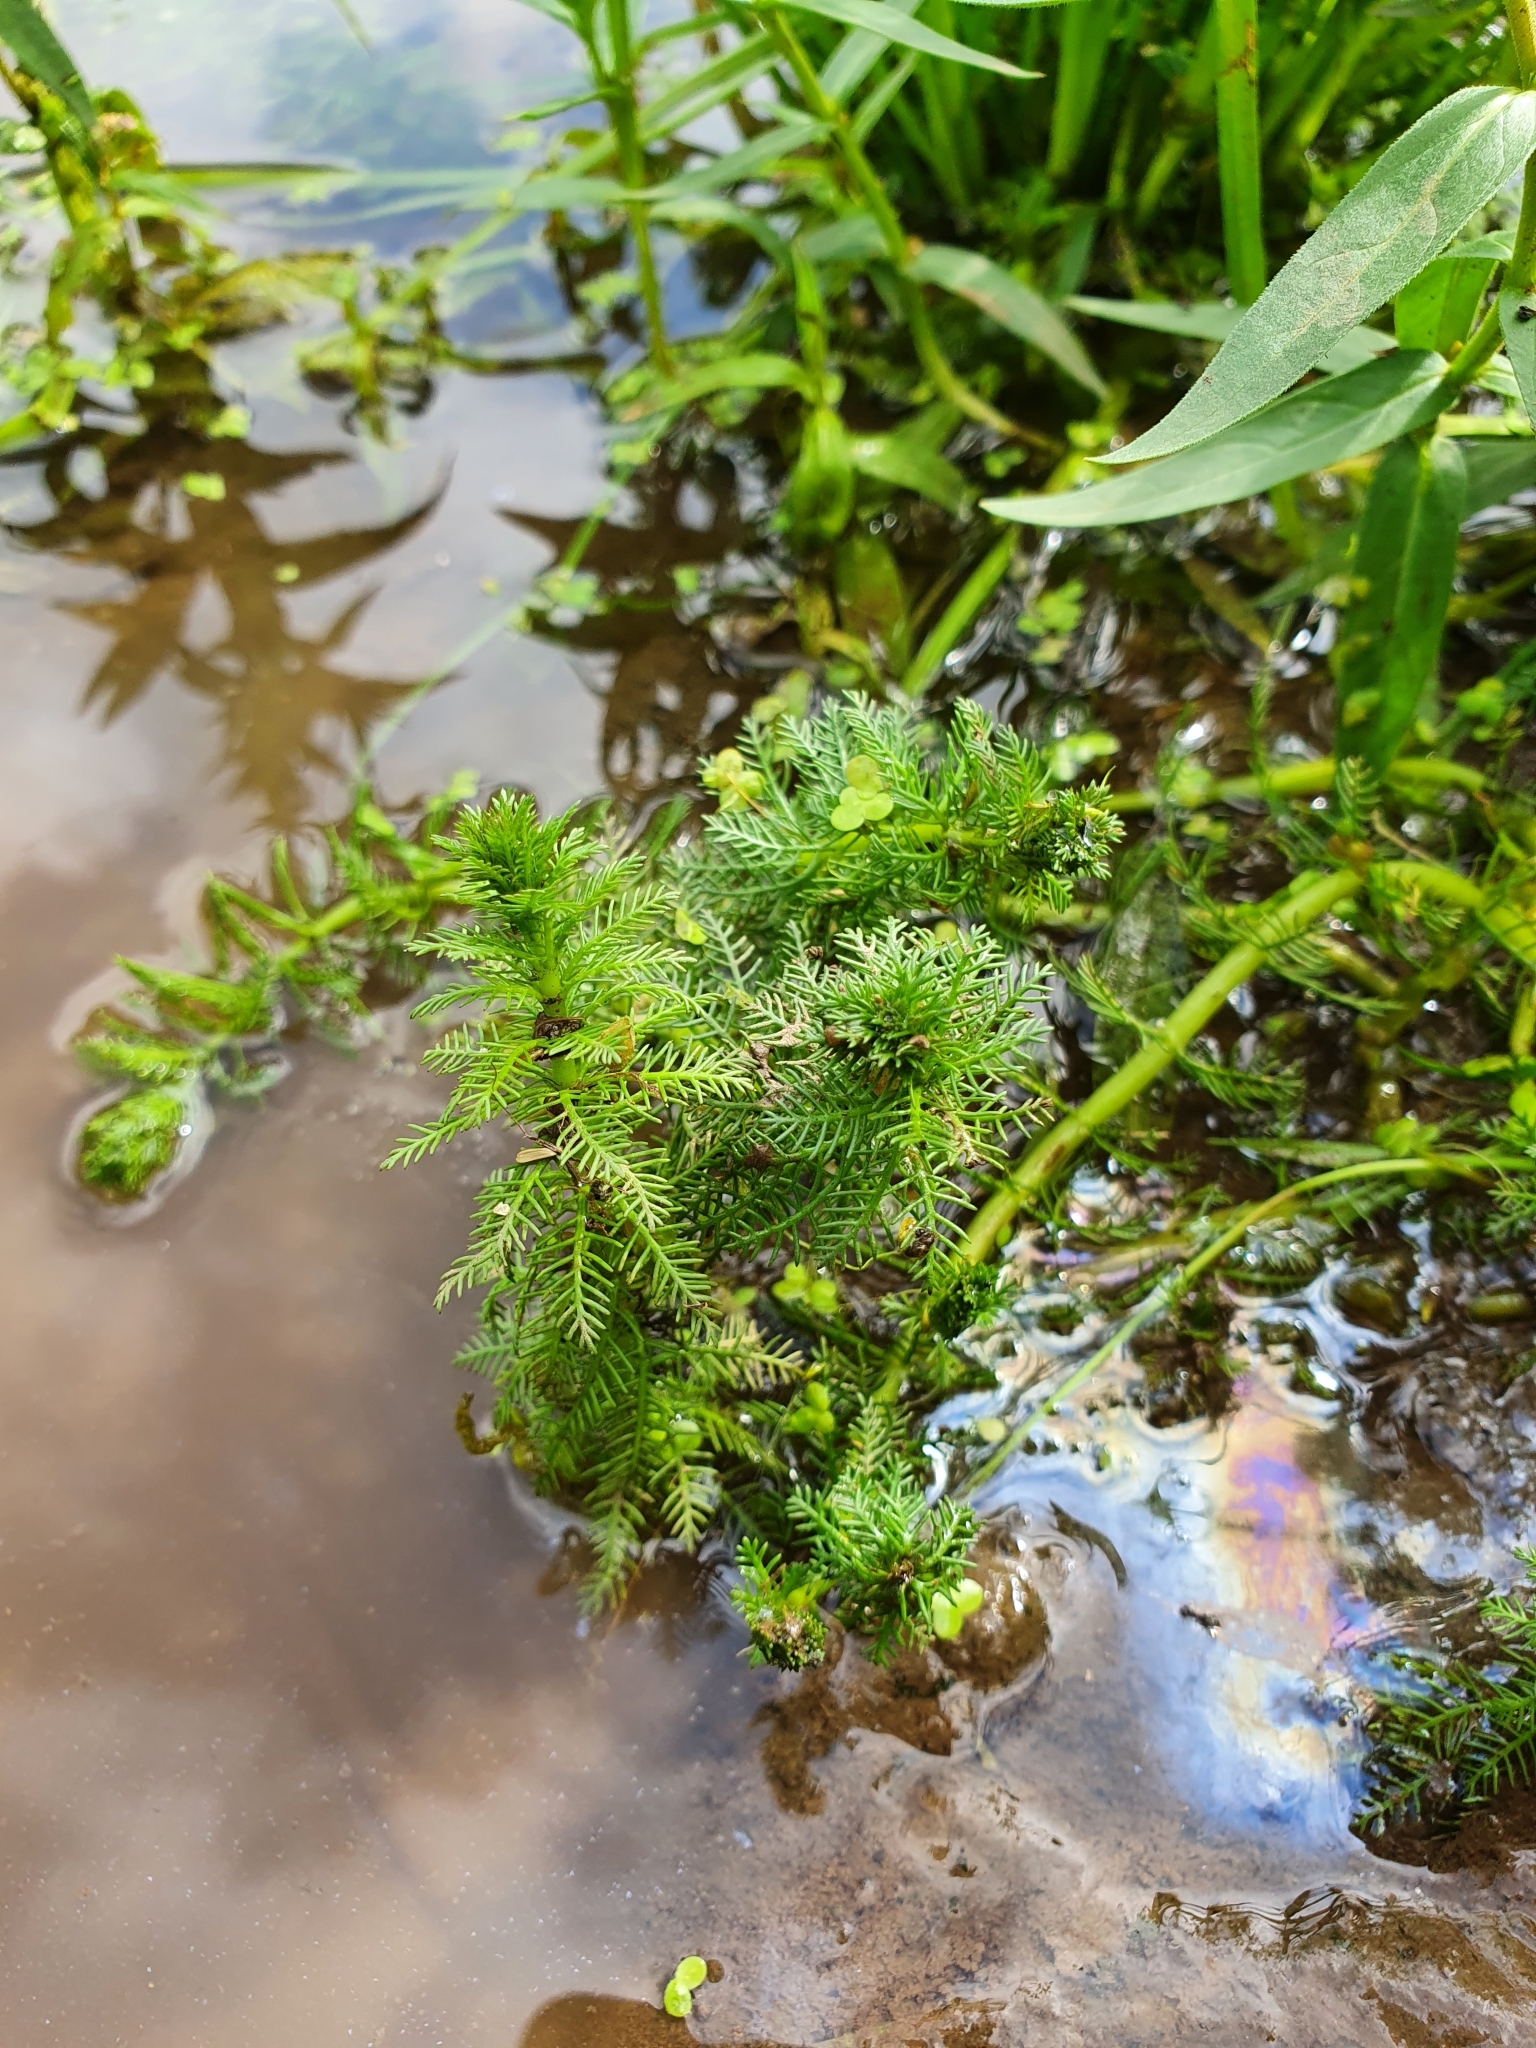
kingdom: Plantae
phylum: Tracheophyta
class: Magnoliopsida
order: Saxifragales
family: Haloragaceae
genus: Myriophyllum
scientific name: Myriophyllum verticillatum
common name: Whorled water-milfoil
